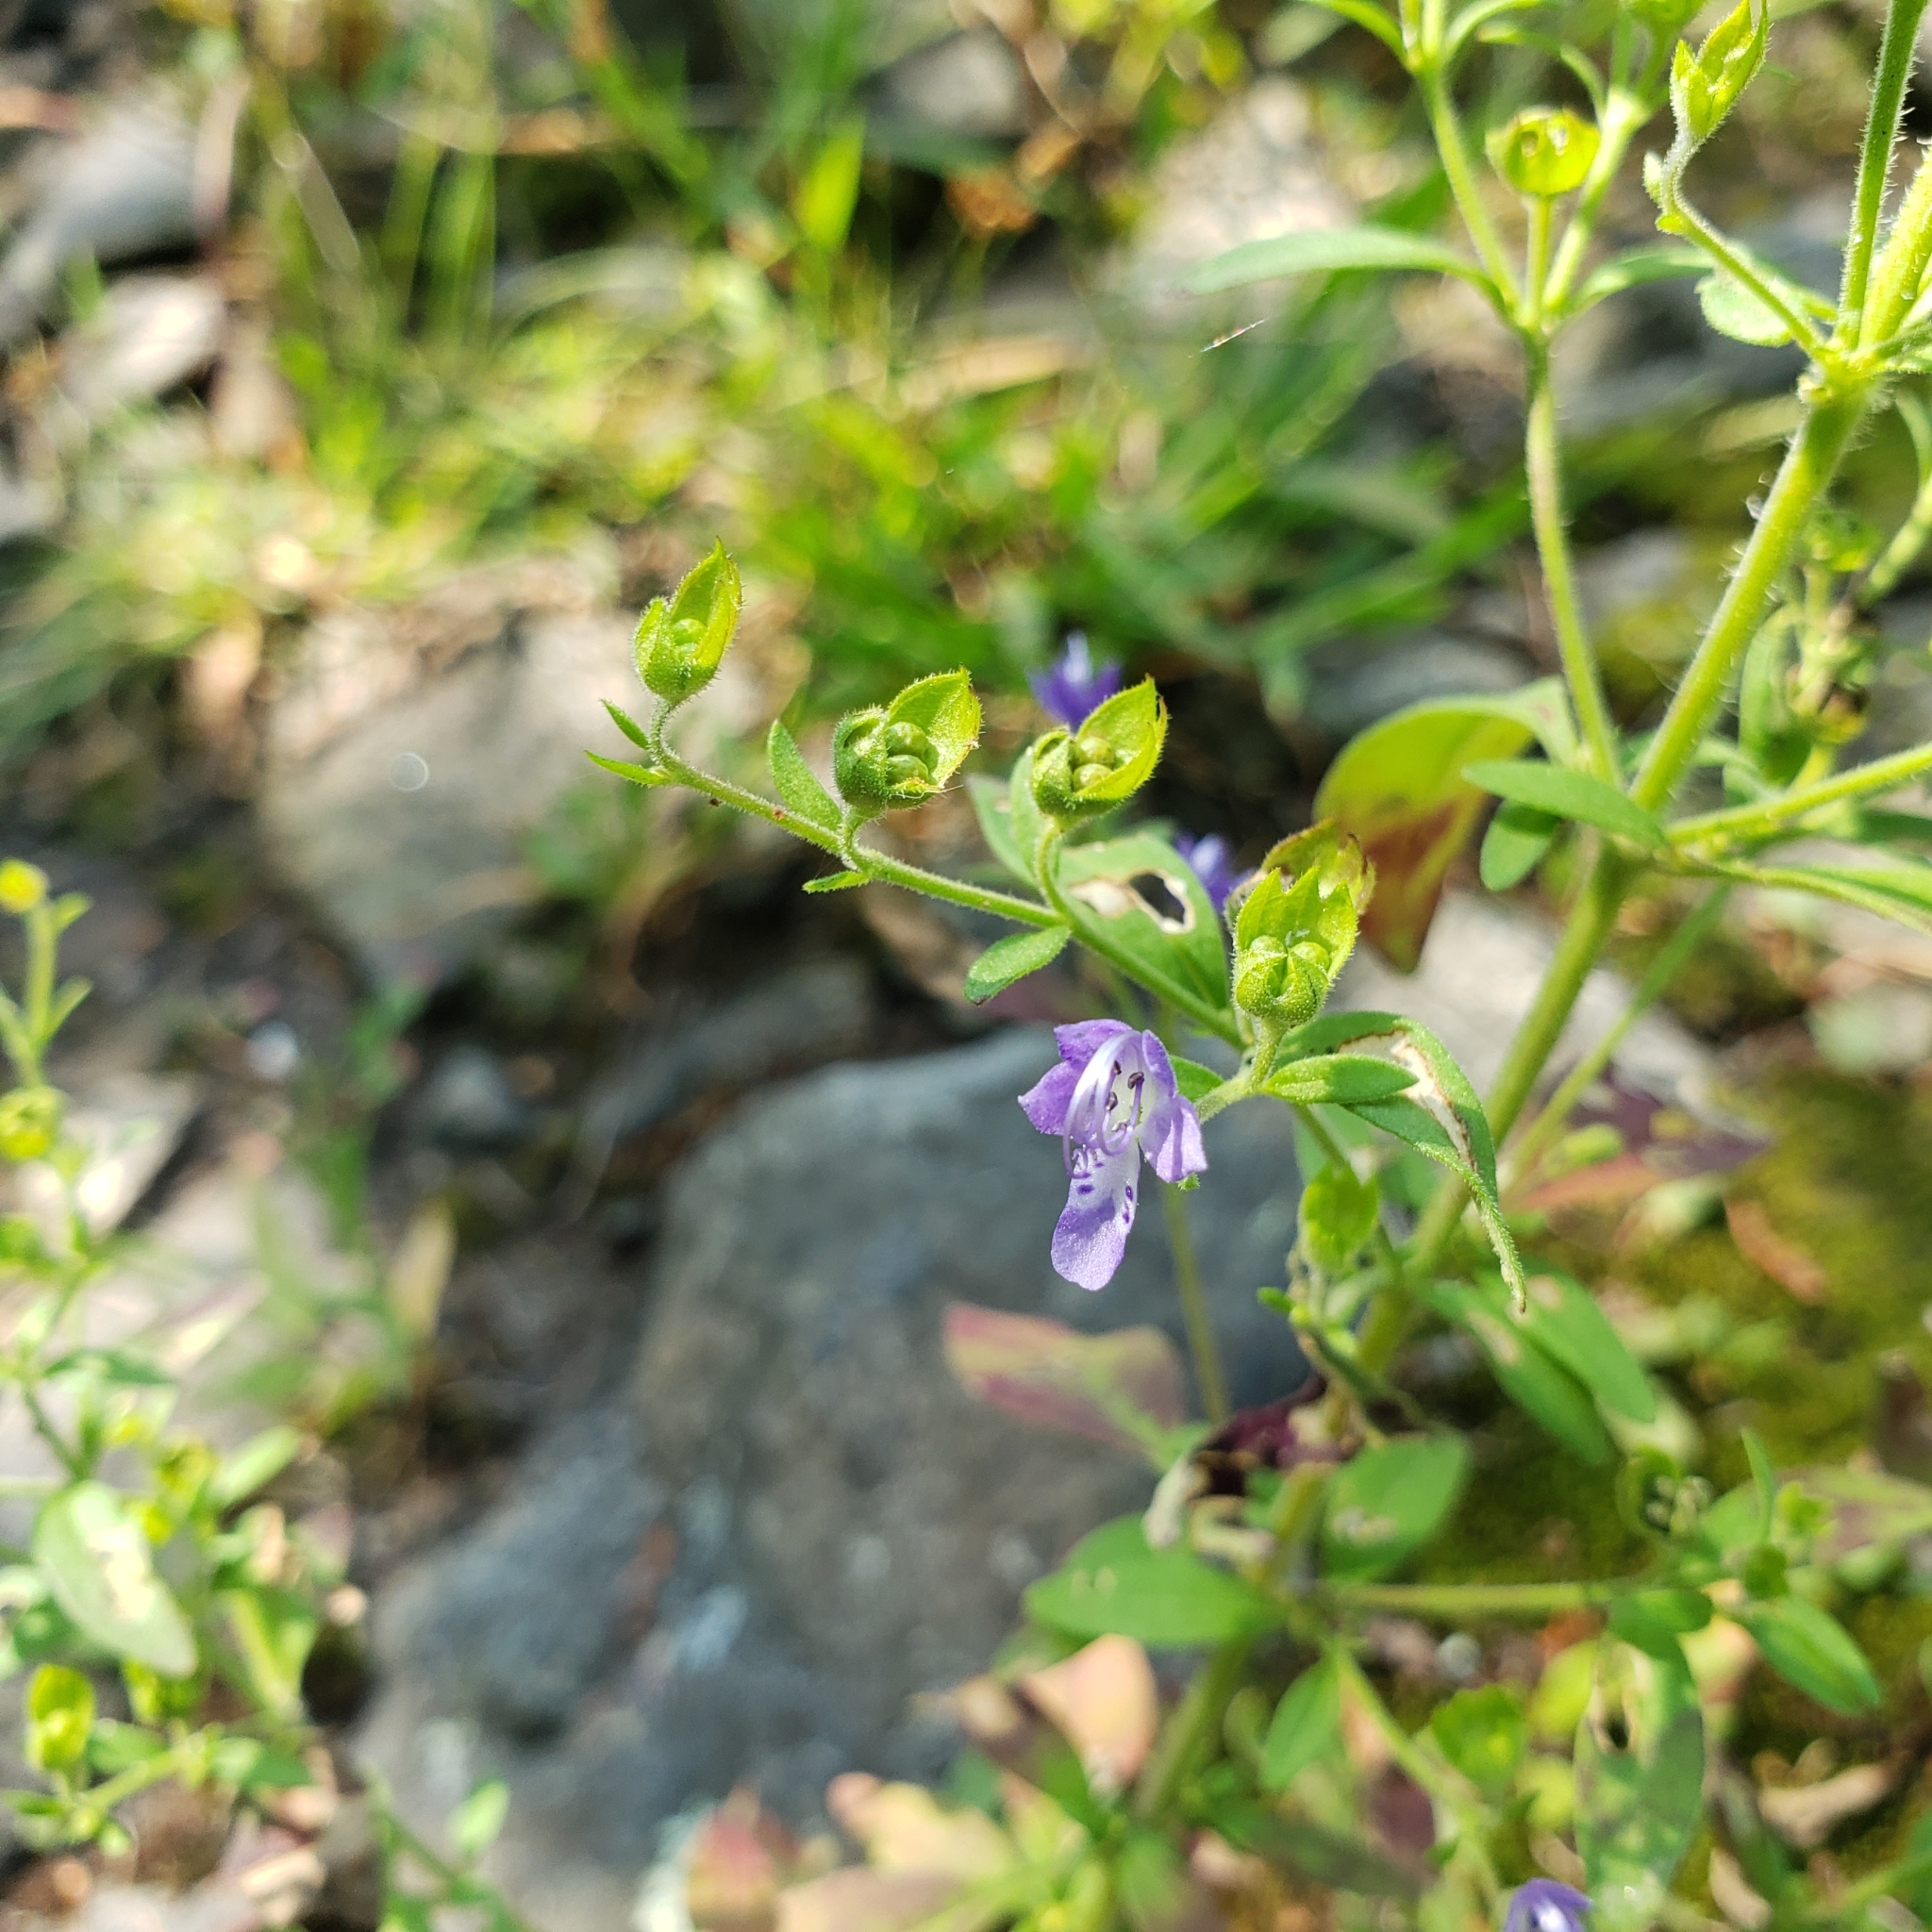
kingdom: Plantae
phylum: Tracheophyta
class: Magnoliopsida
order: Lamiales
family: Lamiaceae
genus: Trichostema
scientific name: Trichostema dichotomum
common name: Bastard pennyroyal
